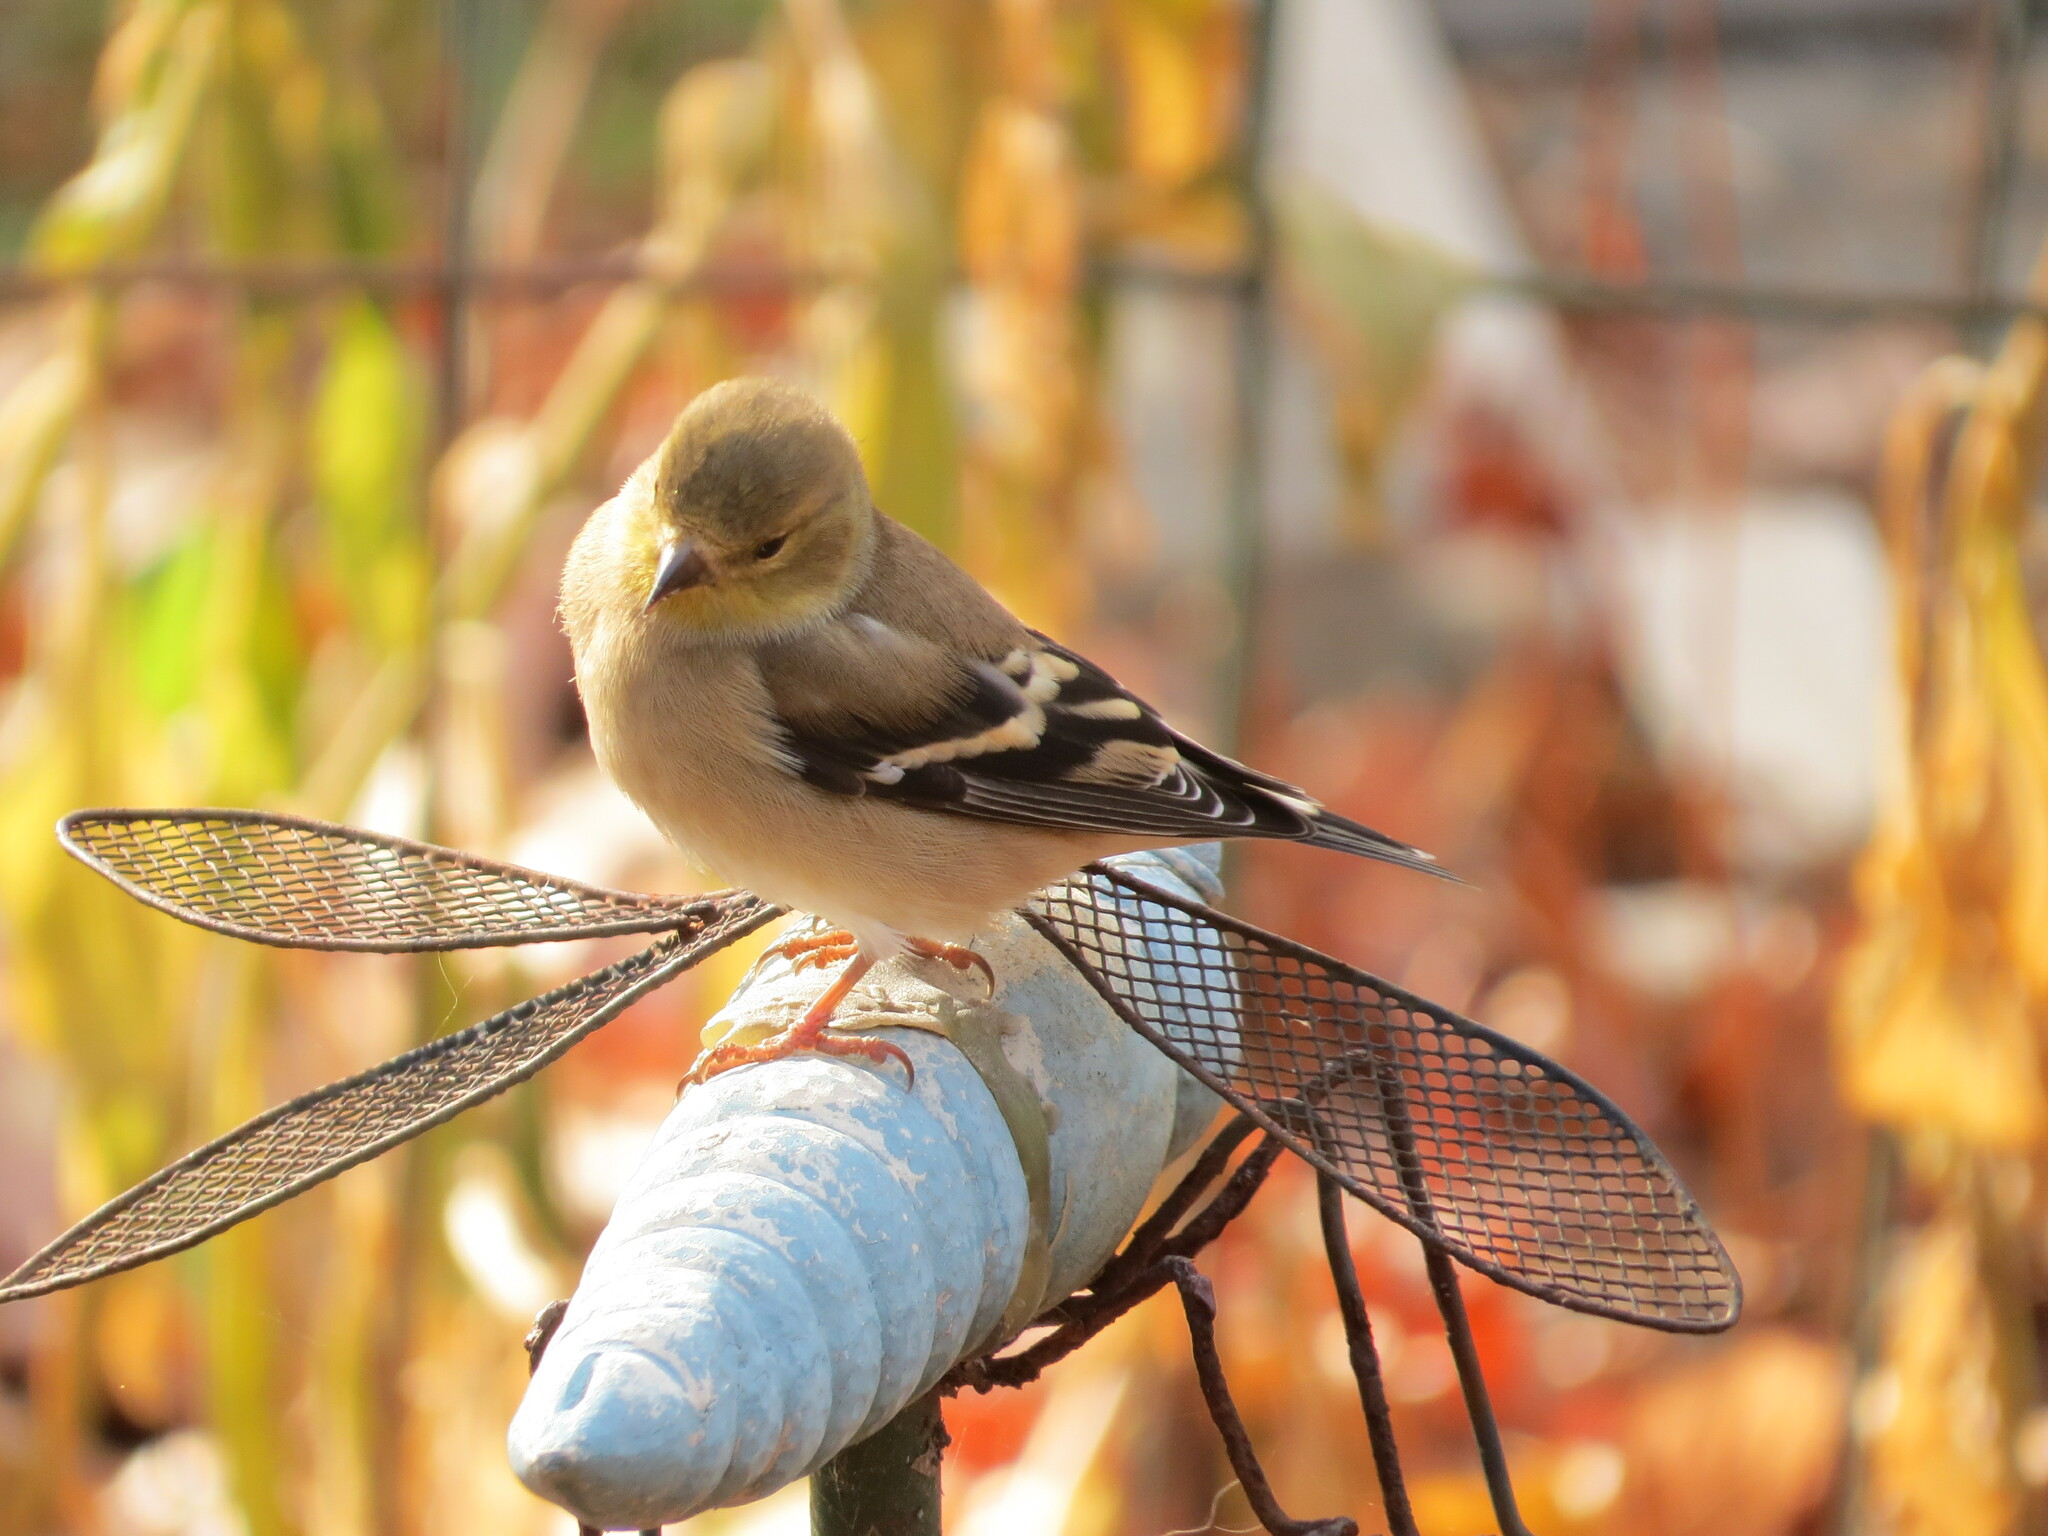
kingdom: Animalia
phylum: Chordata
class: Aves
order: Passeriformes
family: Fringillidae
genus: Spinus
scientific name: Spinus tristis
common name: American goldfinch
